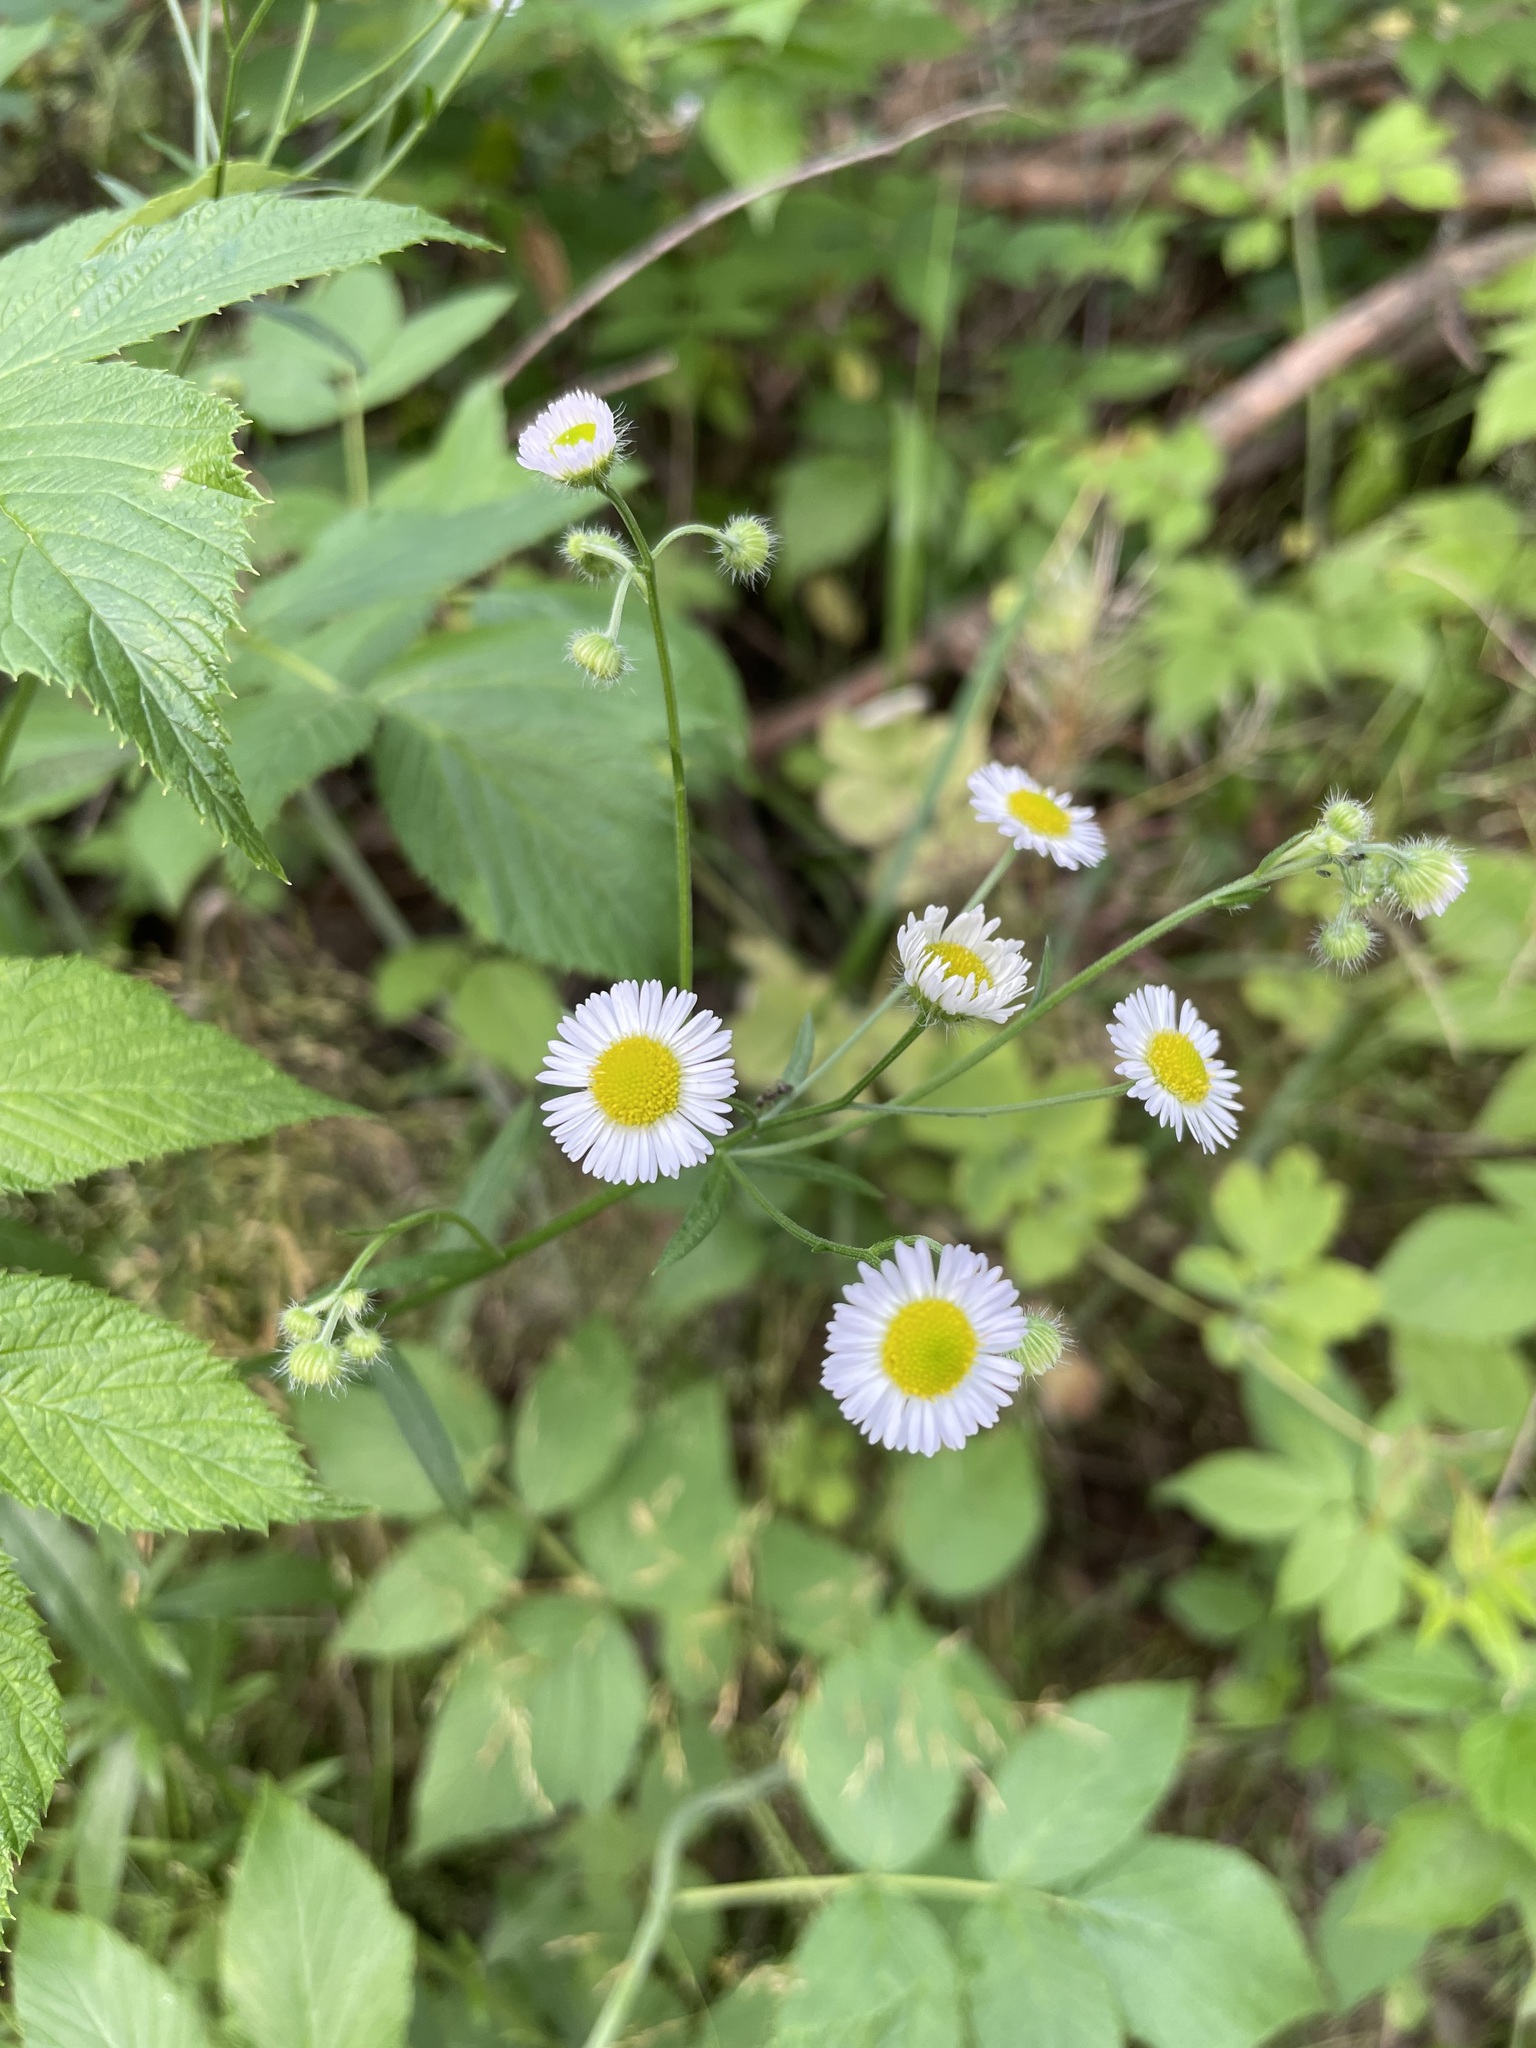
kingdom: Plantae
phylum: Tracheophyta
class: Magnoliopsida
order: Asterales
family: Asteraceae
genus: Erigeron
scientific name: Erigeron strigosus
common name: Common eastern fleabane
